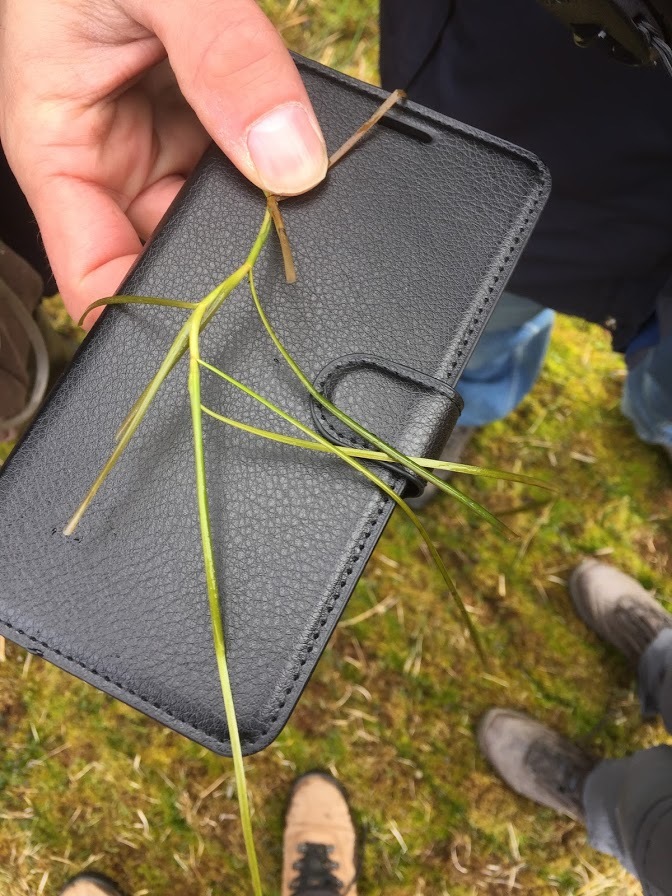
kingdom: Plantae
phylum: Tracheophyta
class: Liliopsida
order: Alismatales
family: Potamogetonaceae
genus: Potamogeton
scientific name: Potamogeton natans
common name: Broad-leaved pondweed
